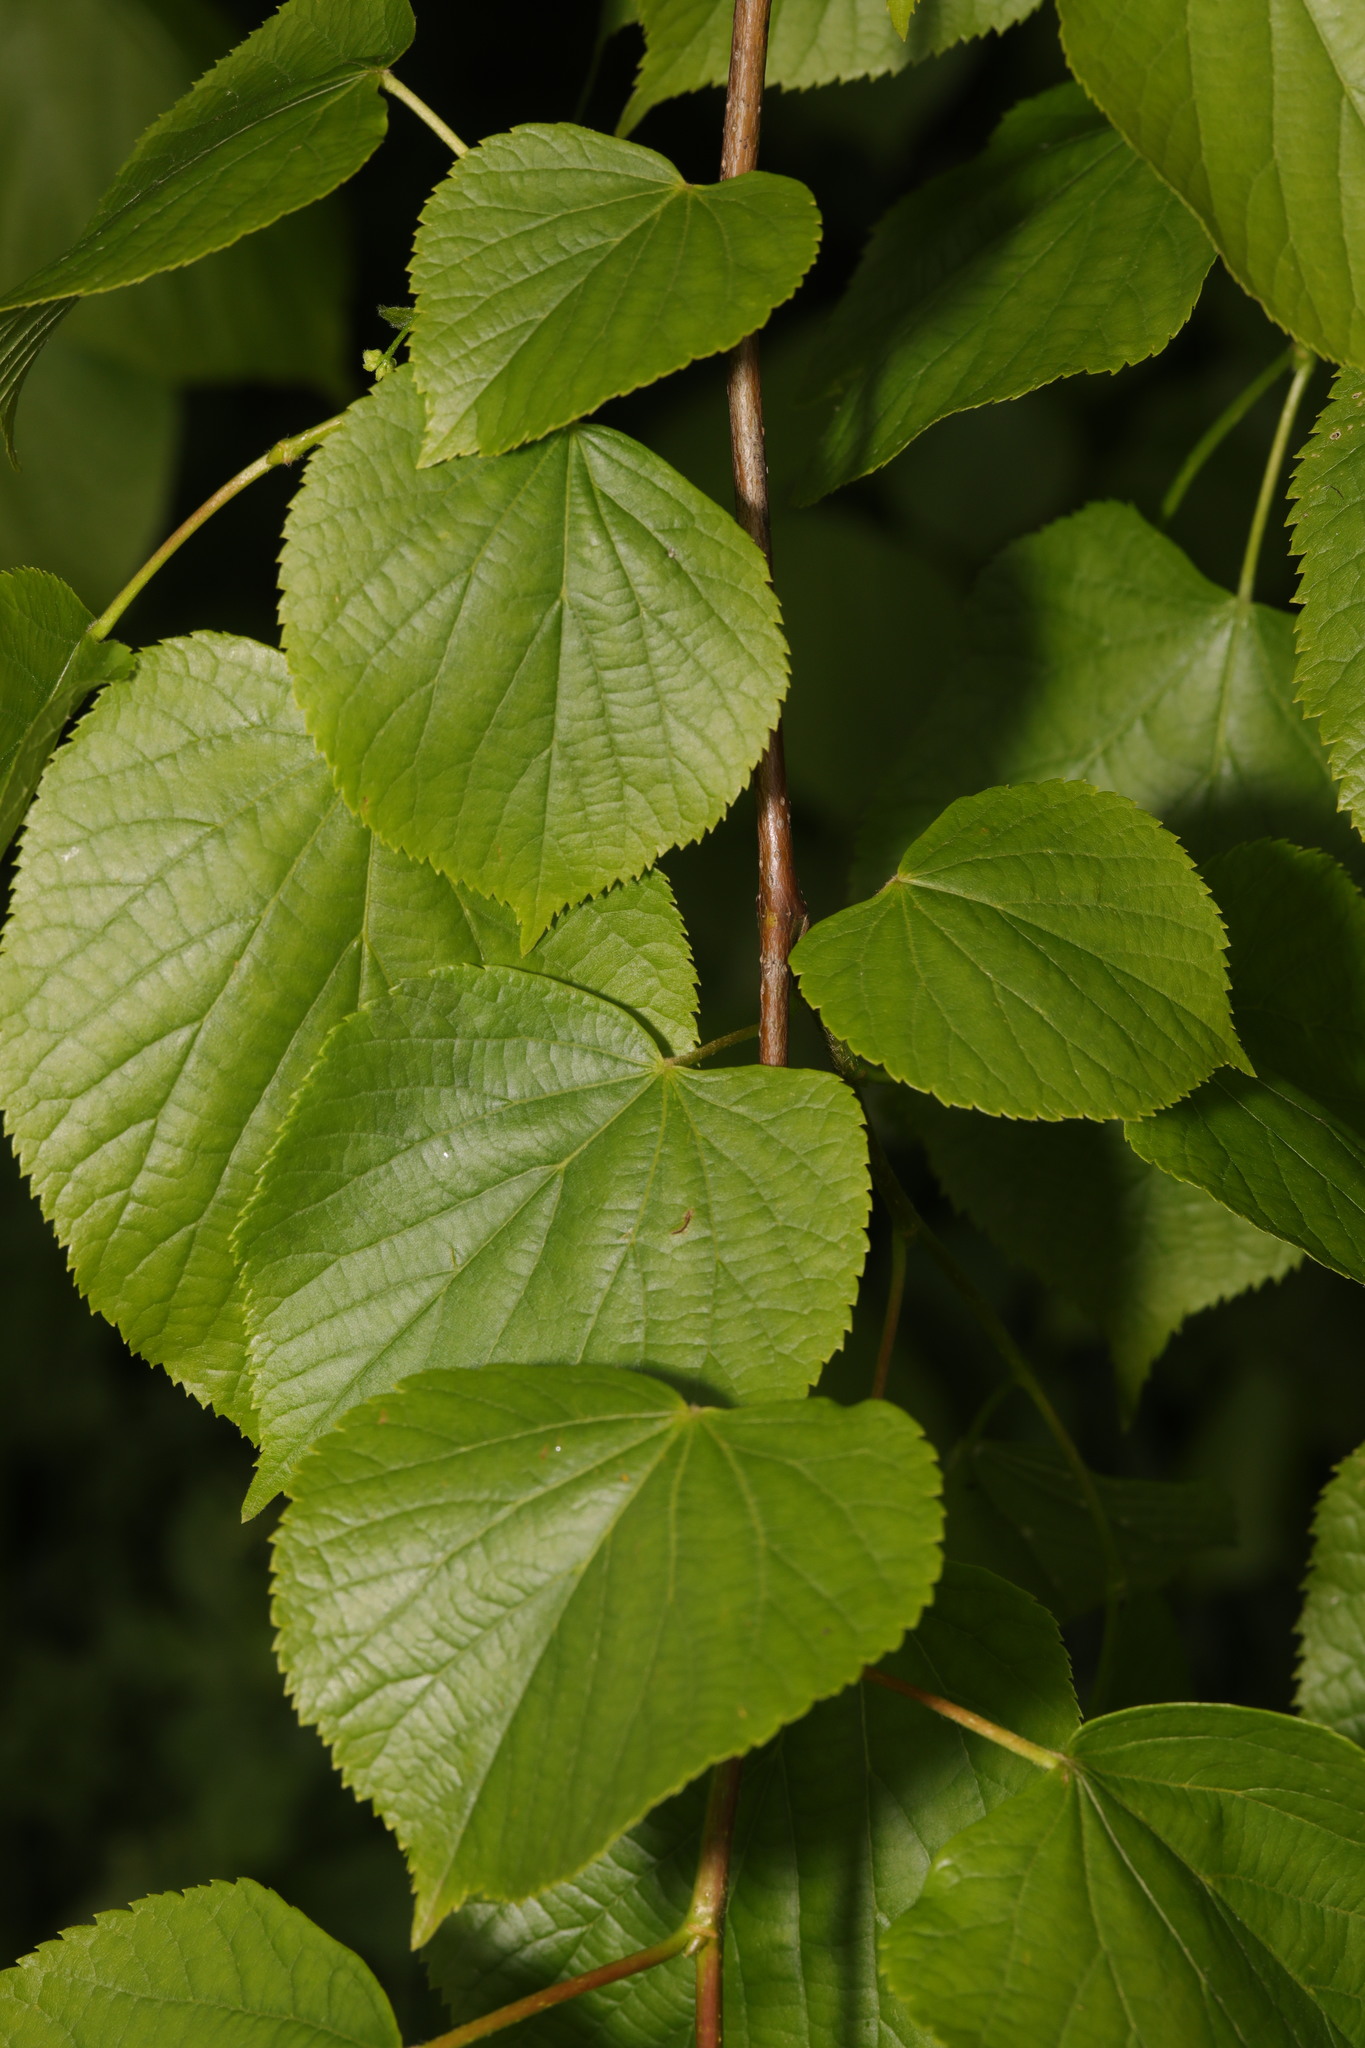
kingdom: Plantae
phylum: Tracheophyta
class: Magnoliopsida
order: Malvales
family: Malvaceae
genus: Tilia
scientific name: Tilia europaea
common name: European linden
